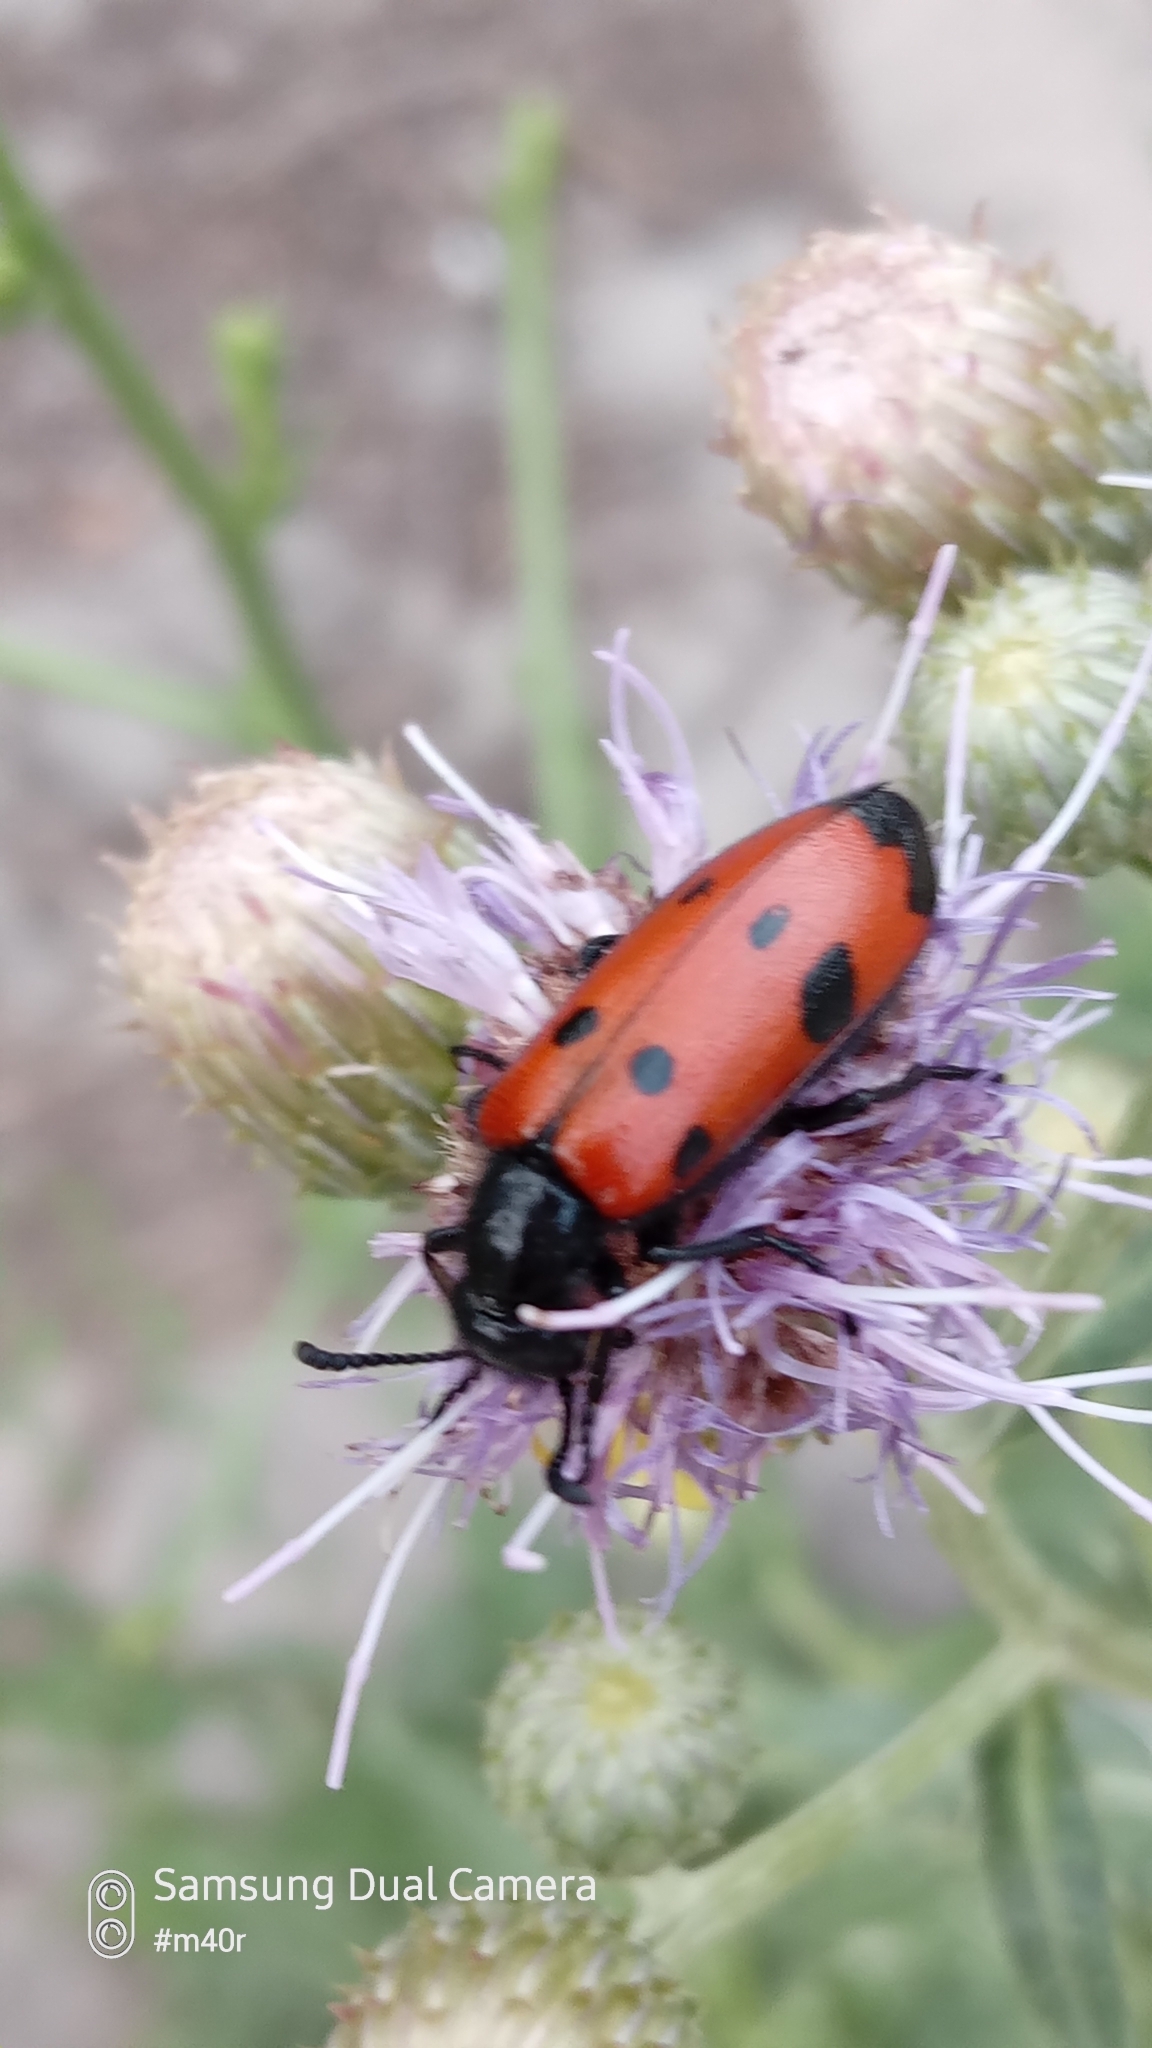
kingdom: Animalia
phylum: Arthropoda
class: Insecta
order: Coleoptera
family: Meloidae
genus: Mylabris
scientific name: Mylabris quadripunctata
